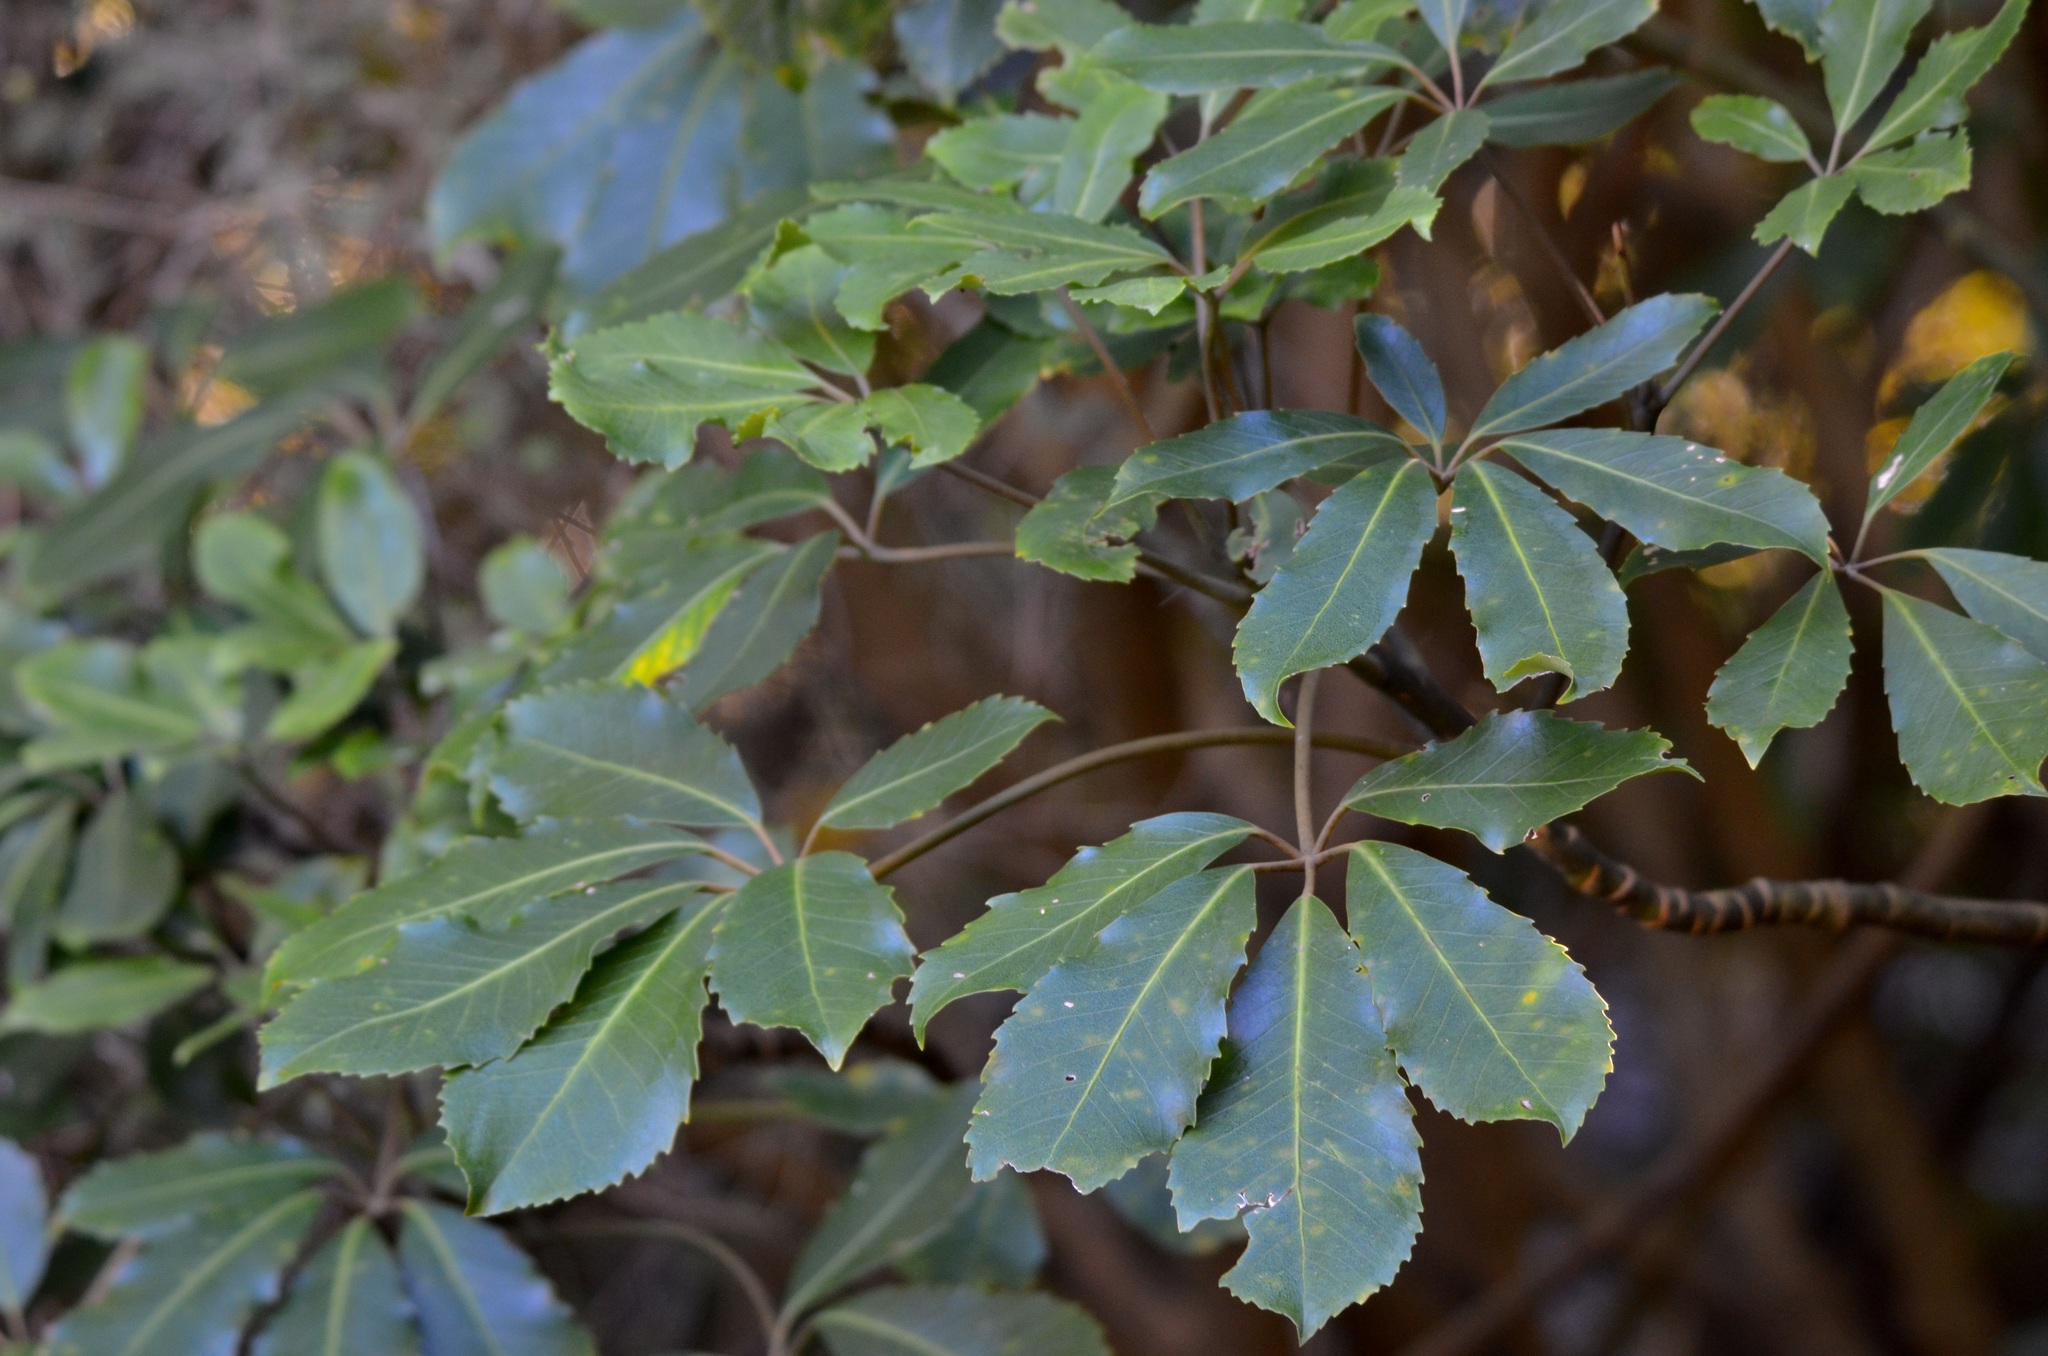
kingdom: Plantae
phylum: Tracheophyta
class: Magnoliopsida
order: Apiales
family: Araliaceae
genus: Neopanax
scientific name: Neopanax arboreus
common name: Five-fingers
